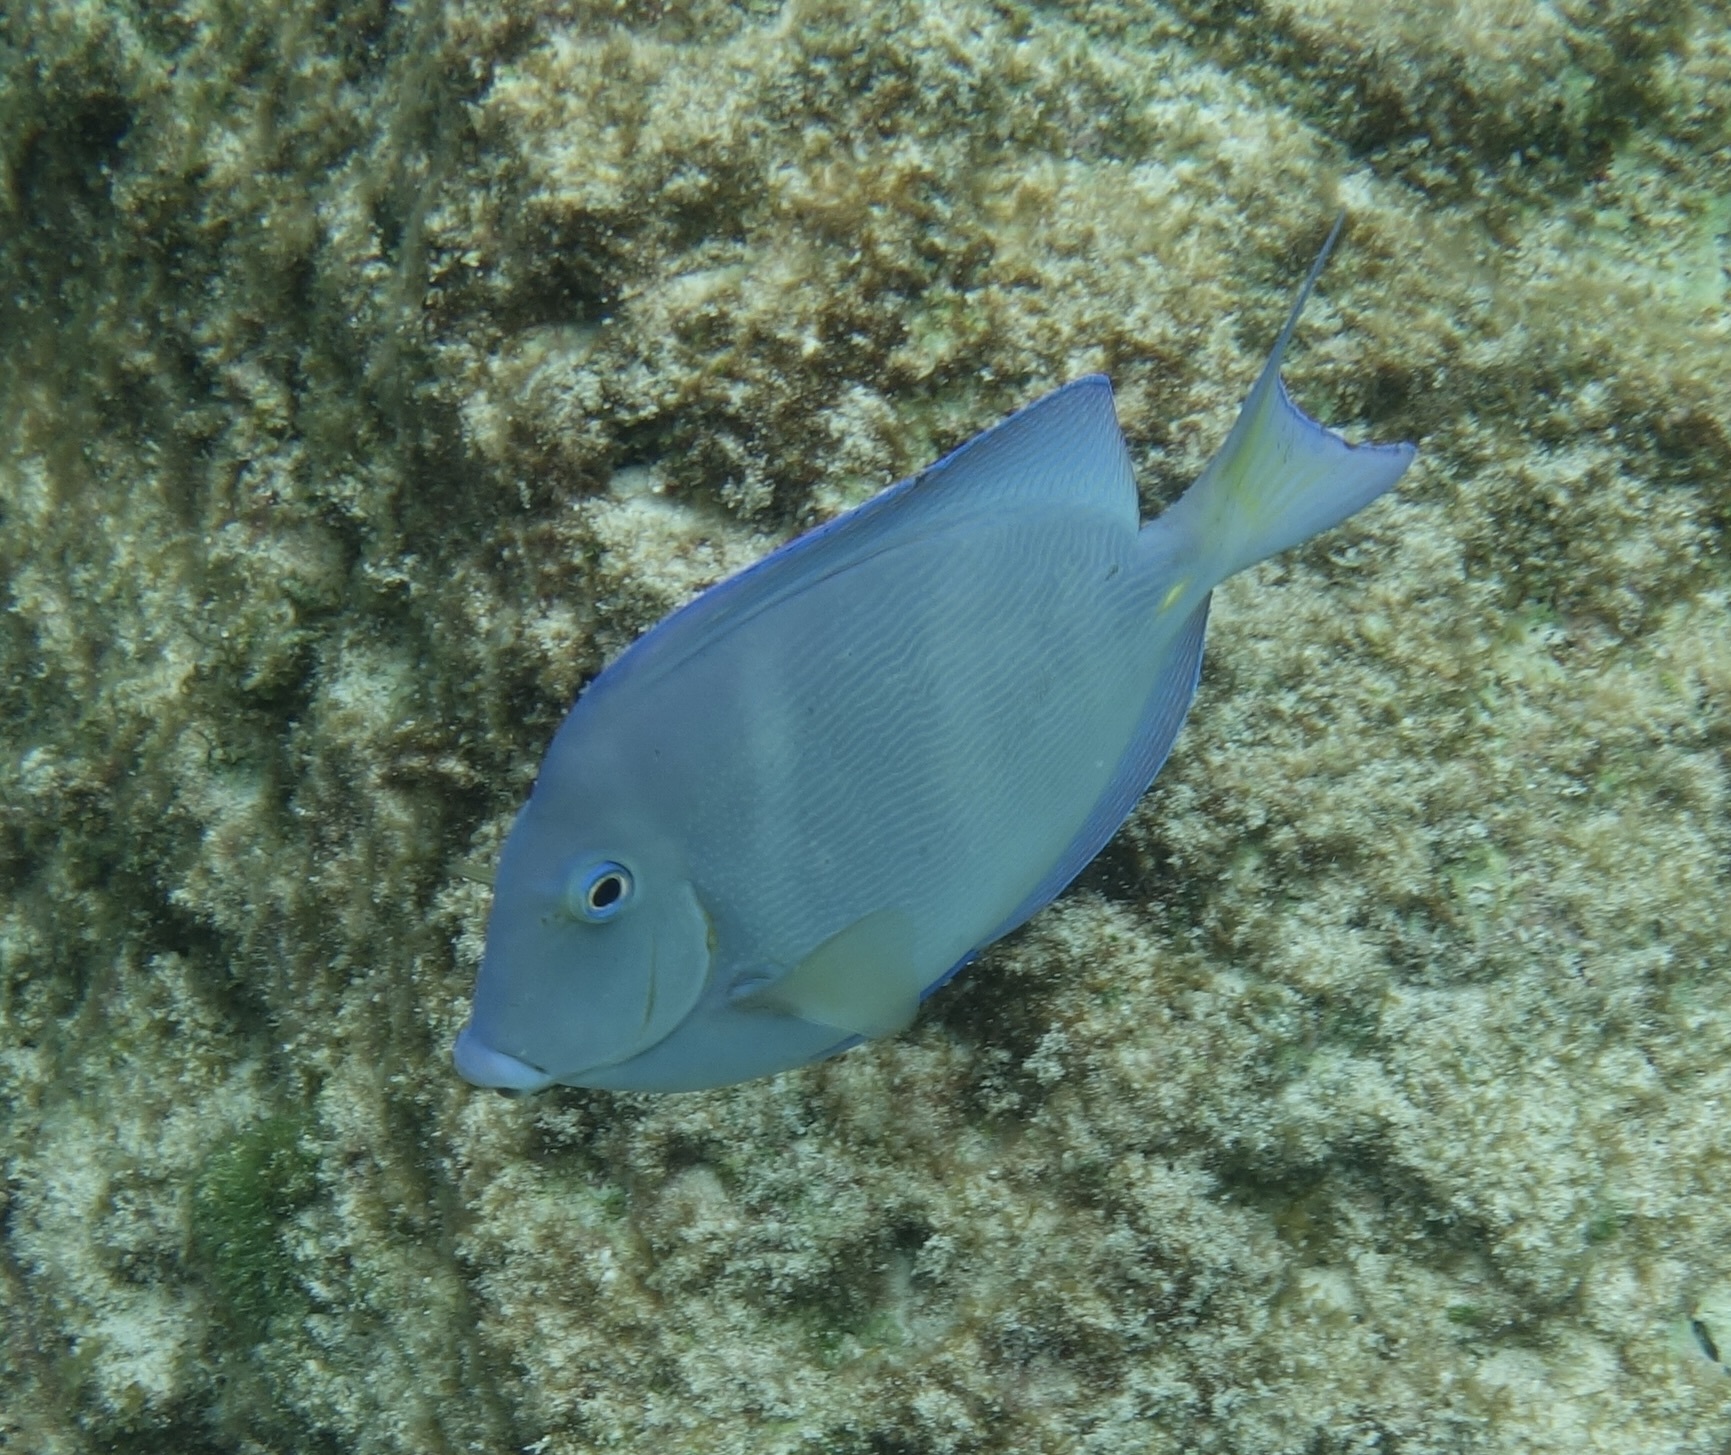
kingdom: Animalia
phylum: Chordata
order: Perciformes
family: Acanthuridae
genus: Acanthurus
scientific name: Acanthurus coeruleus
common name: Blue tang
